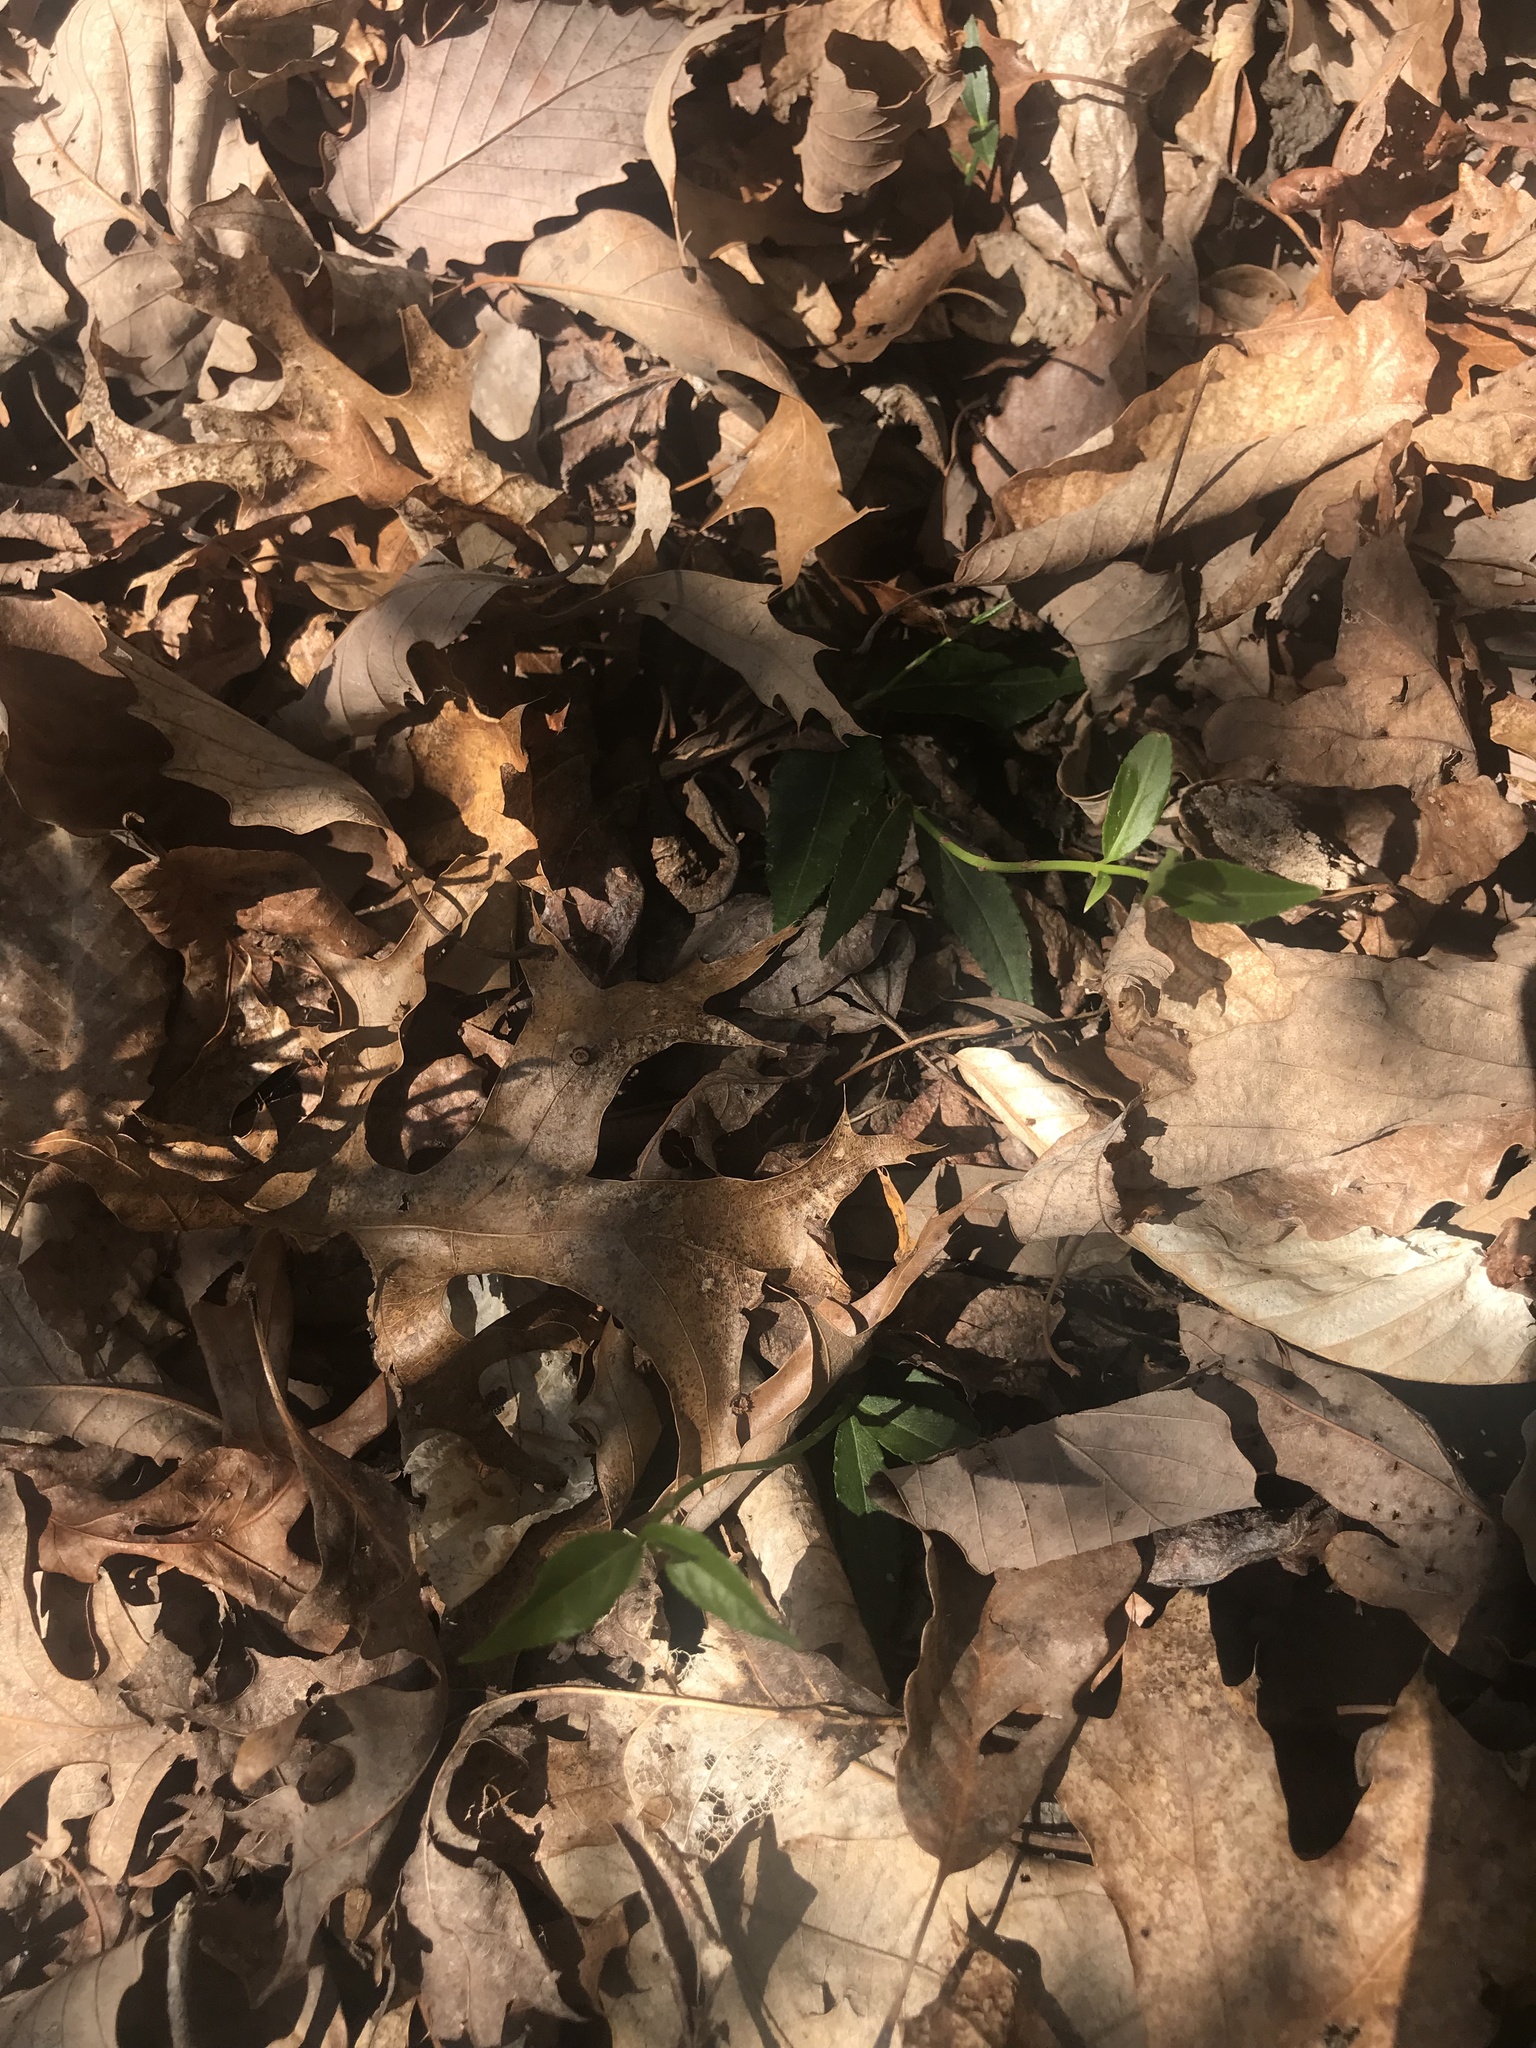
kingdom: Plantae
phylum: Tracheophyta
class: Magnoliopsida
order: Celastrales
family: Celastraceae
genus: Euonymus
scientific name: Euonymus americanus
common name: Bursting-heart
